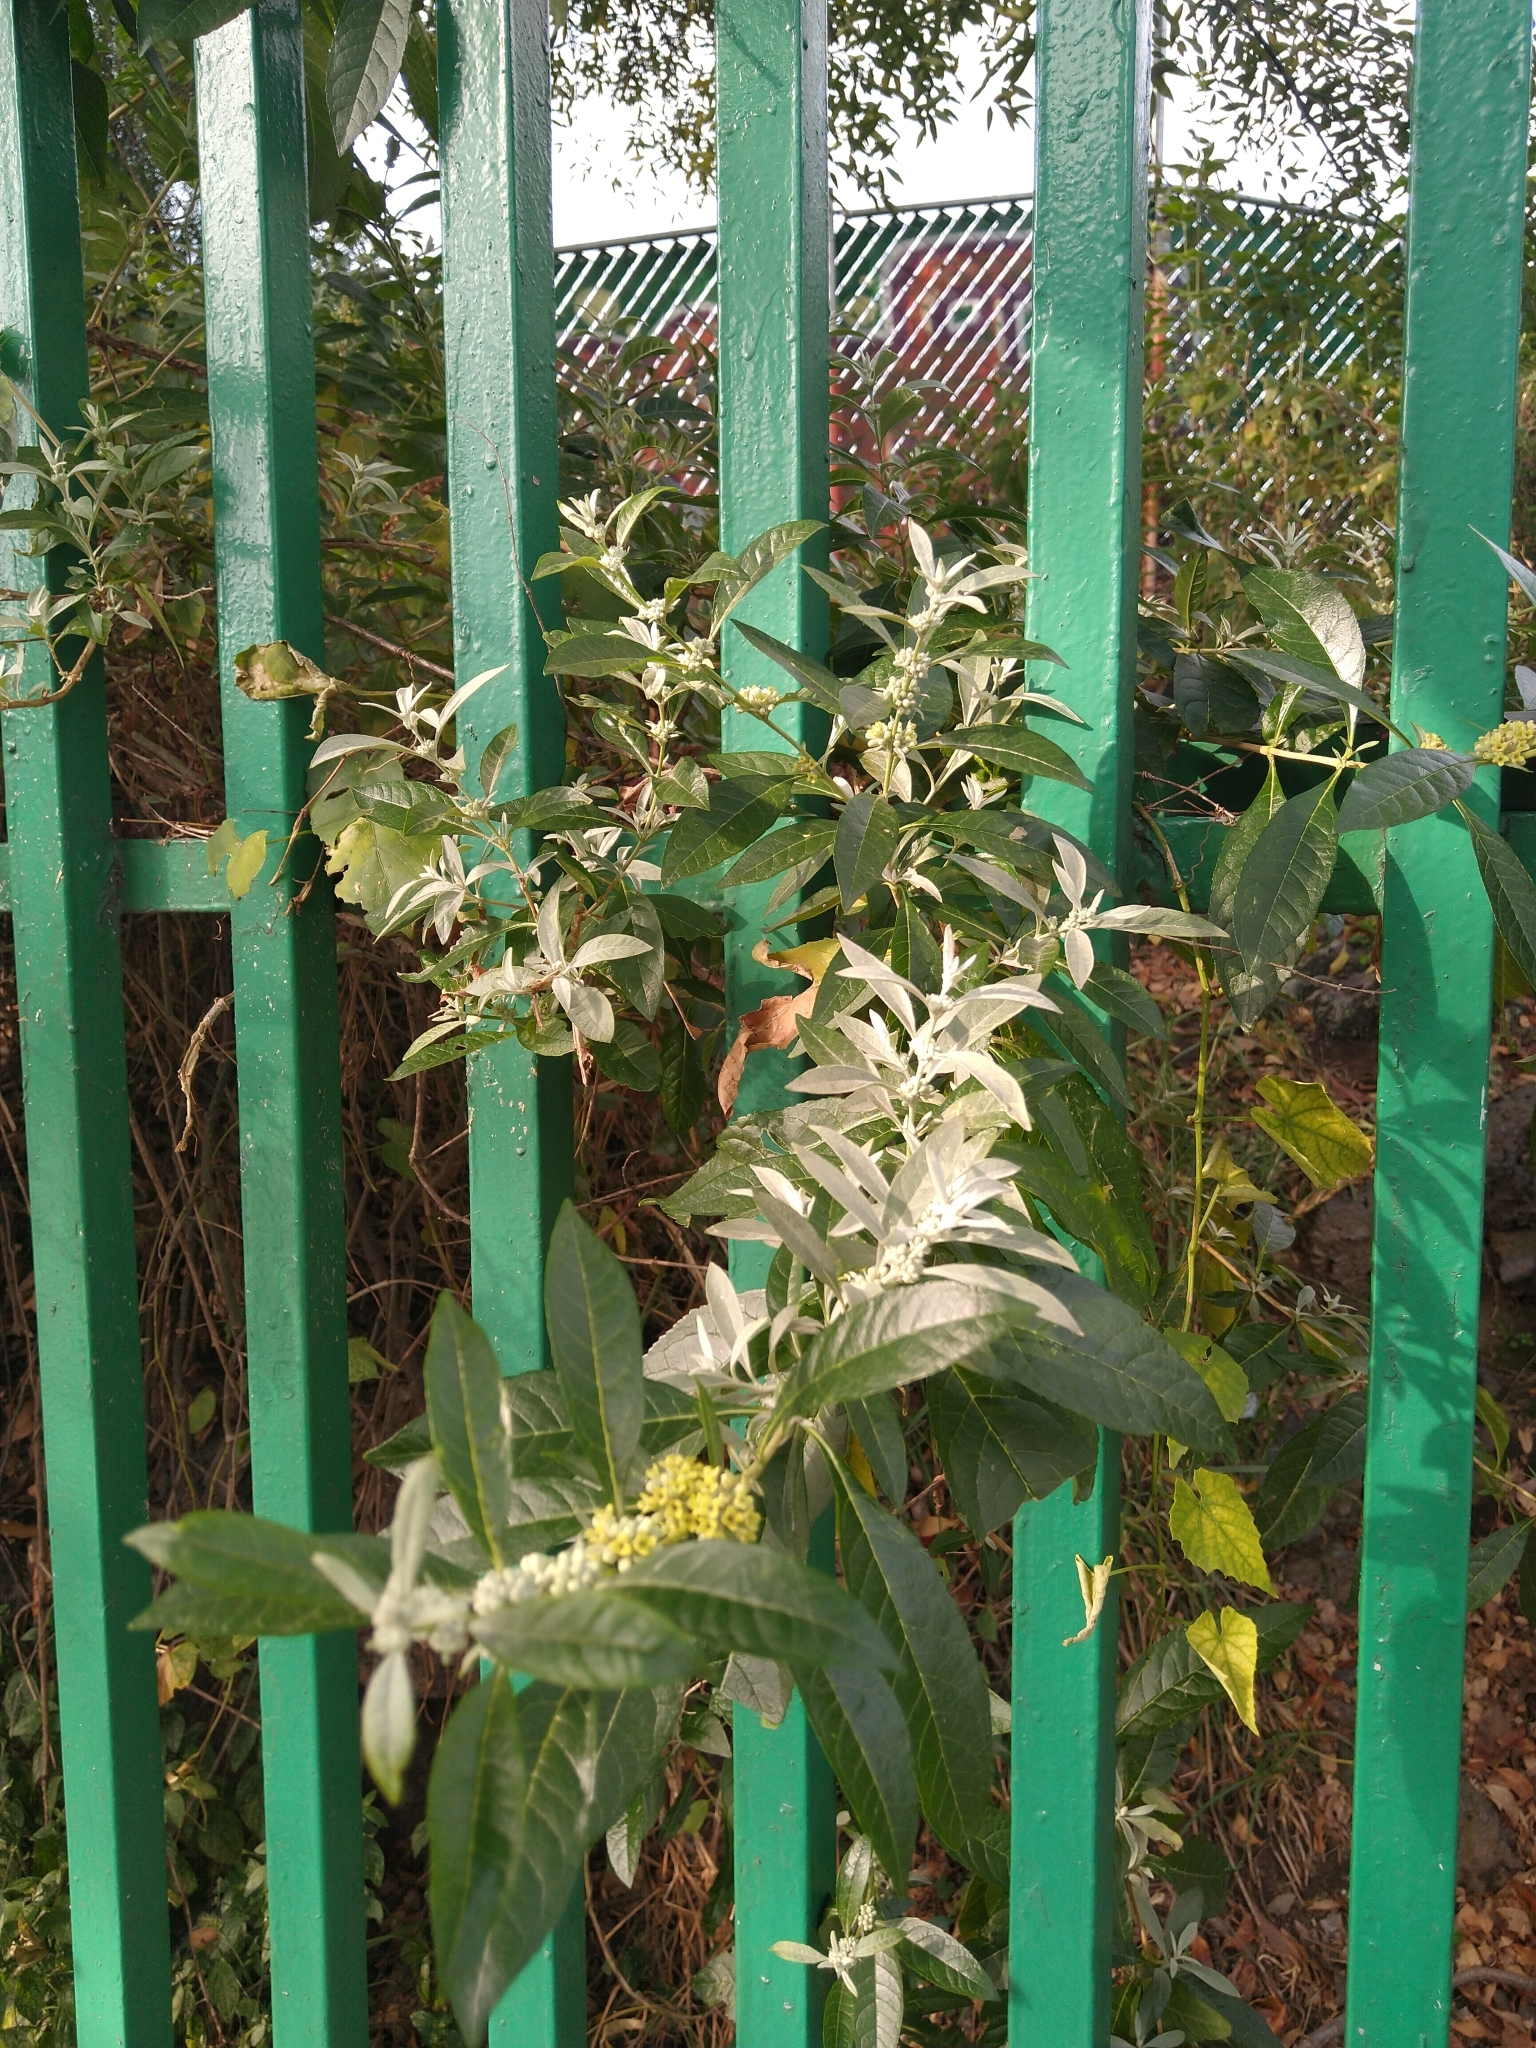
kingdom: Plantae
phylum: Tracheophyta
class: Magnoliopsida
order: Lamiales
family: Scrophulariaceae
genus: Buddleja
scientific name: Buddleja sessiliflora
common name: Rio grande butterfly-bush
